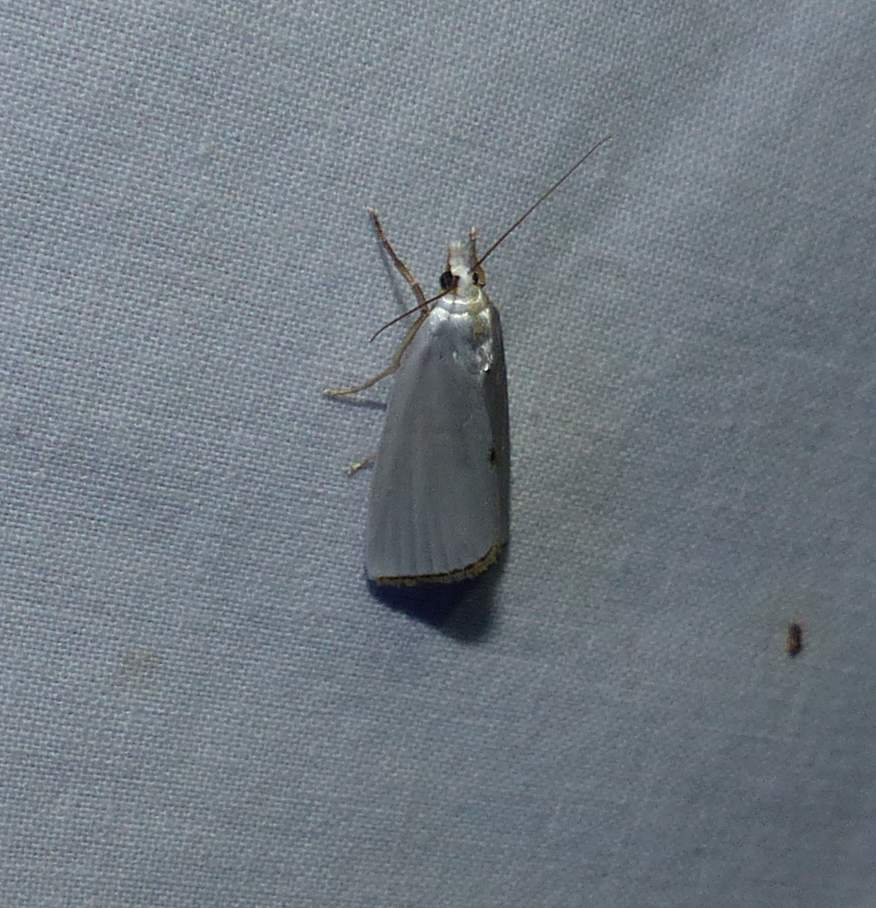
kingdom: Animalia
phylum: Arthropoda
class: Insecta
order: Lepidoptera
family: Crambidae
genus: Argyria
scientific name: Argyria nivalis
